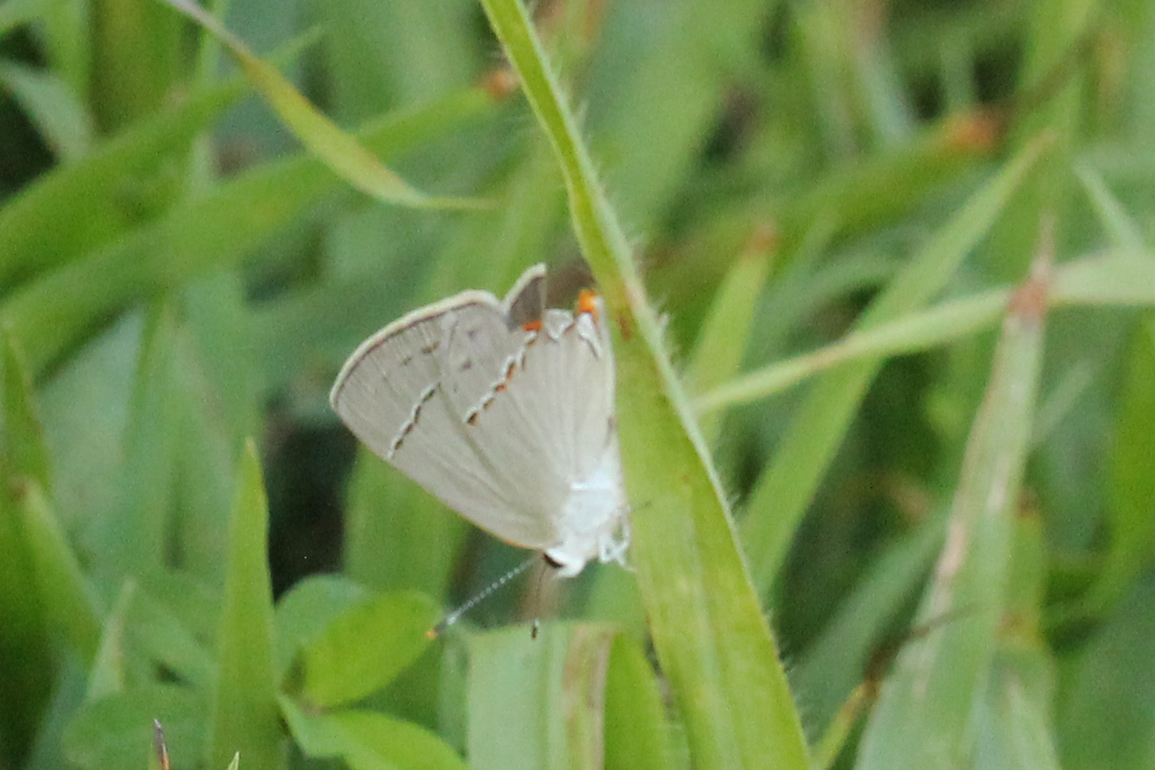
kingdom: Animalia
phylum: Arthropoda
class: Insecta
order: Lepidoptera
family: Lycaenidae
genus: Strymon
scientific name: Strymon melinus
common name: Gray hairstreak
